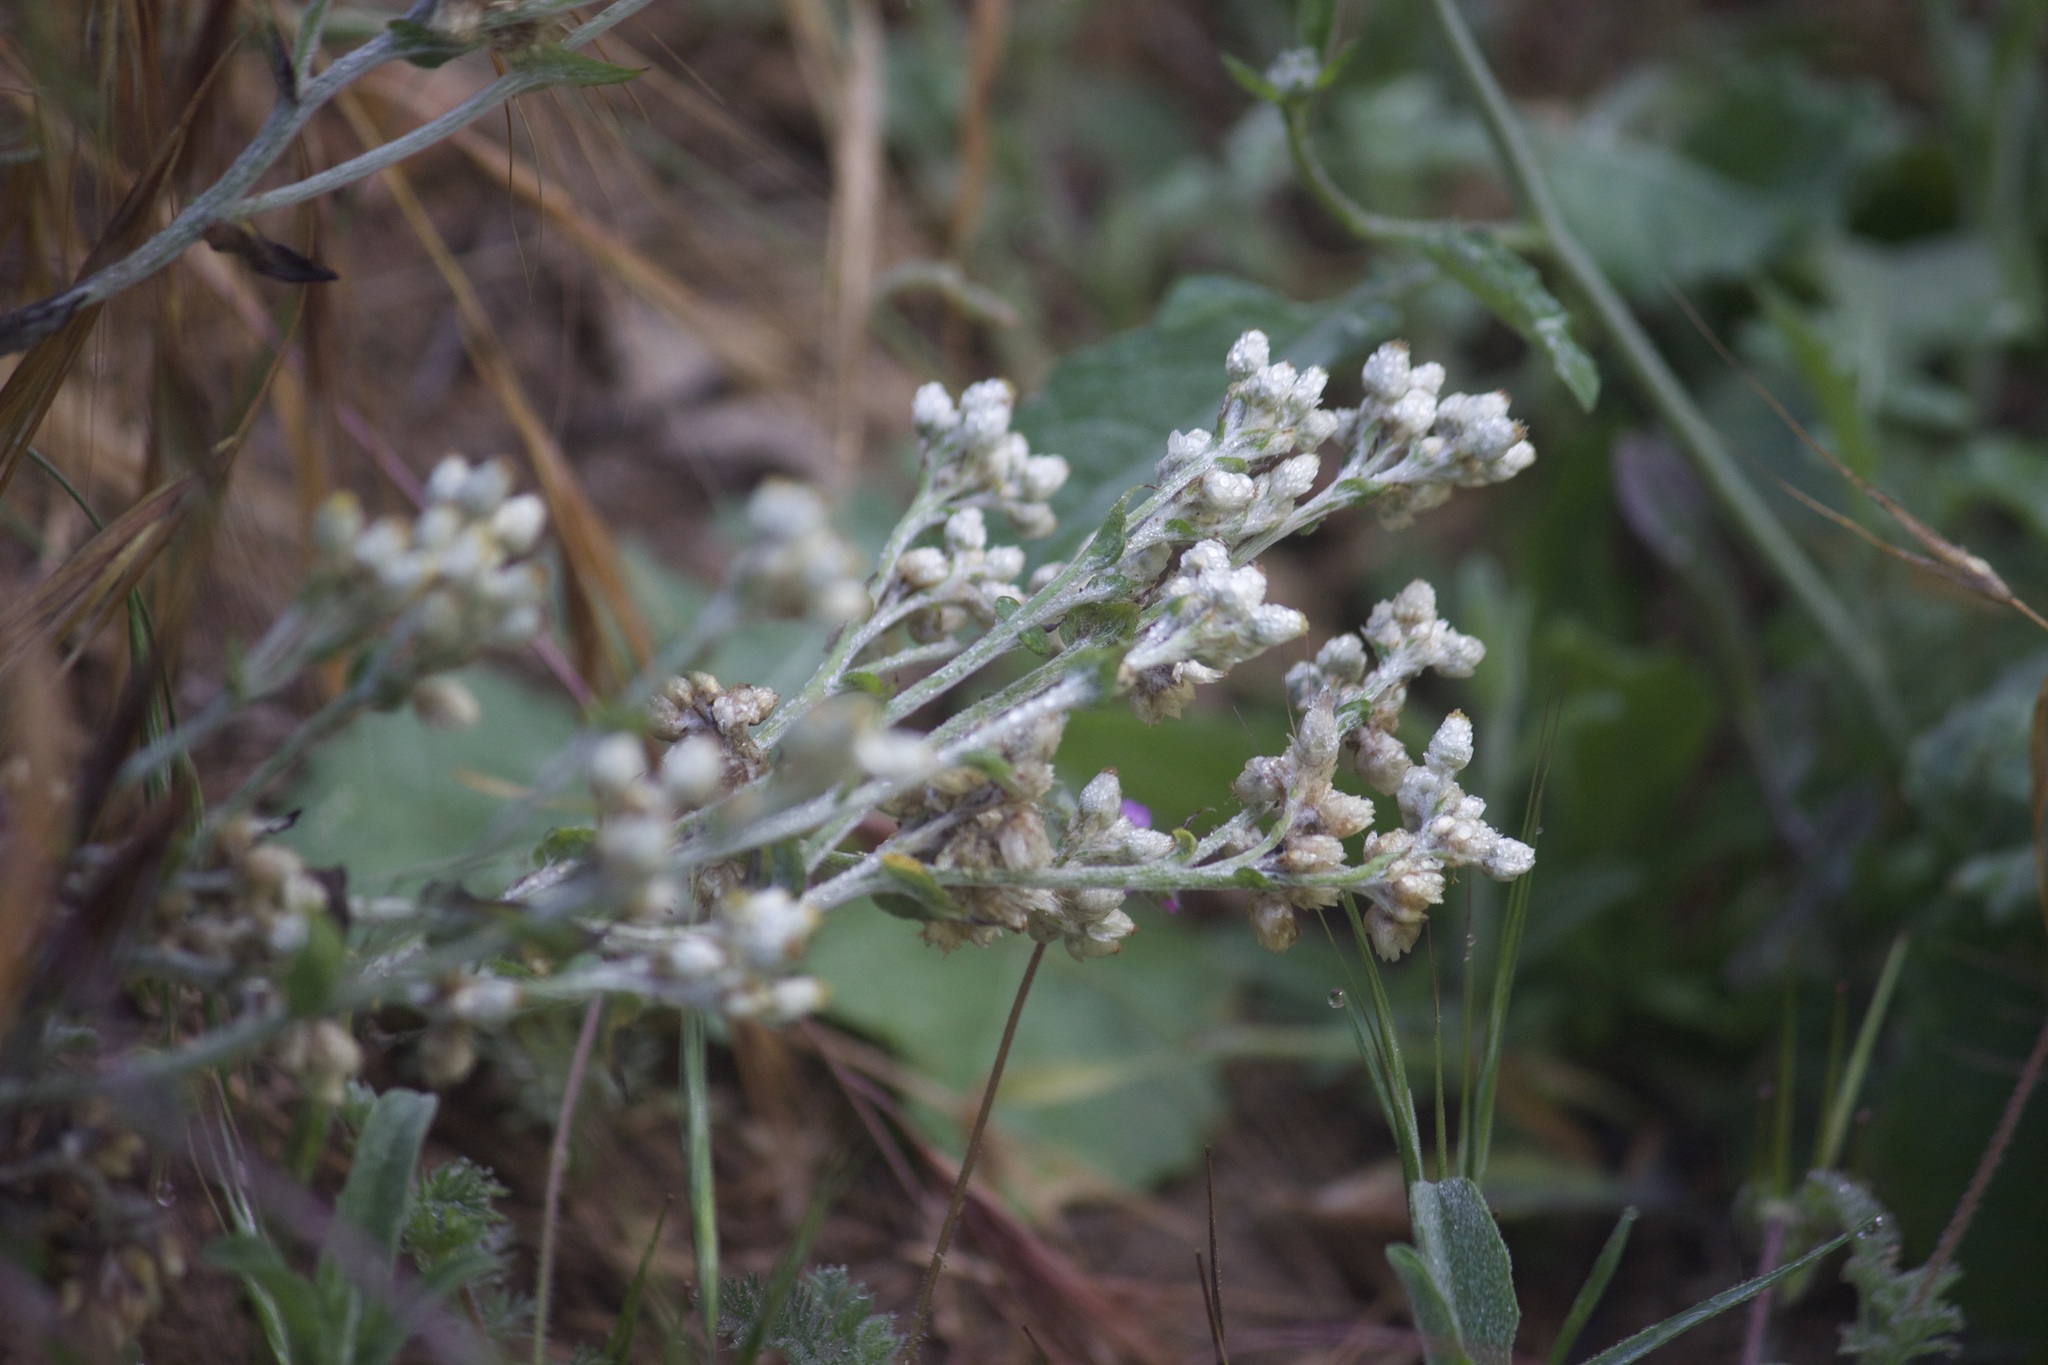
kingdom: Plantae
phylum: Tracheophyta
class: Magnoliopsida
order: Asterales
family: Asteraceae
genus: Pseudognaphalium
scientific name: Pseudognaphalium biolettii
